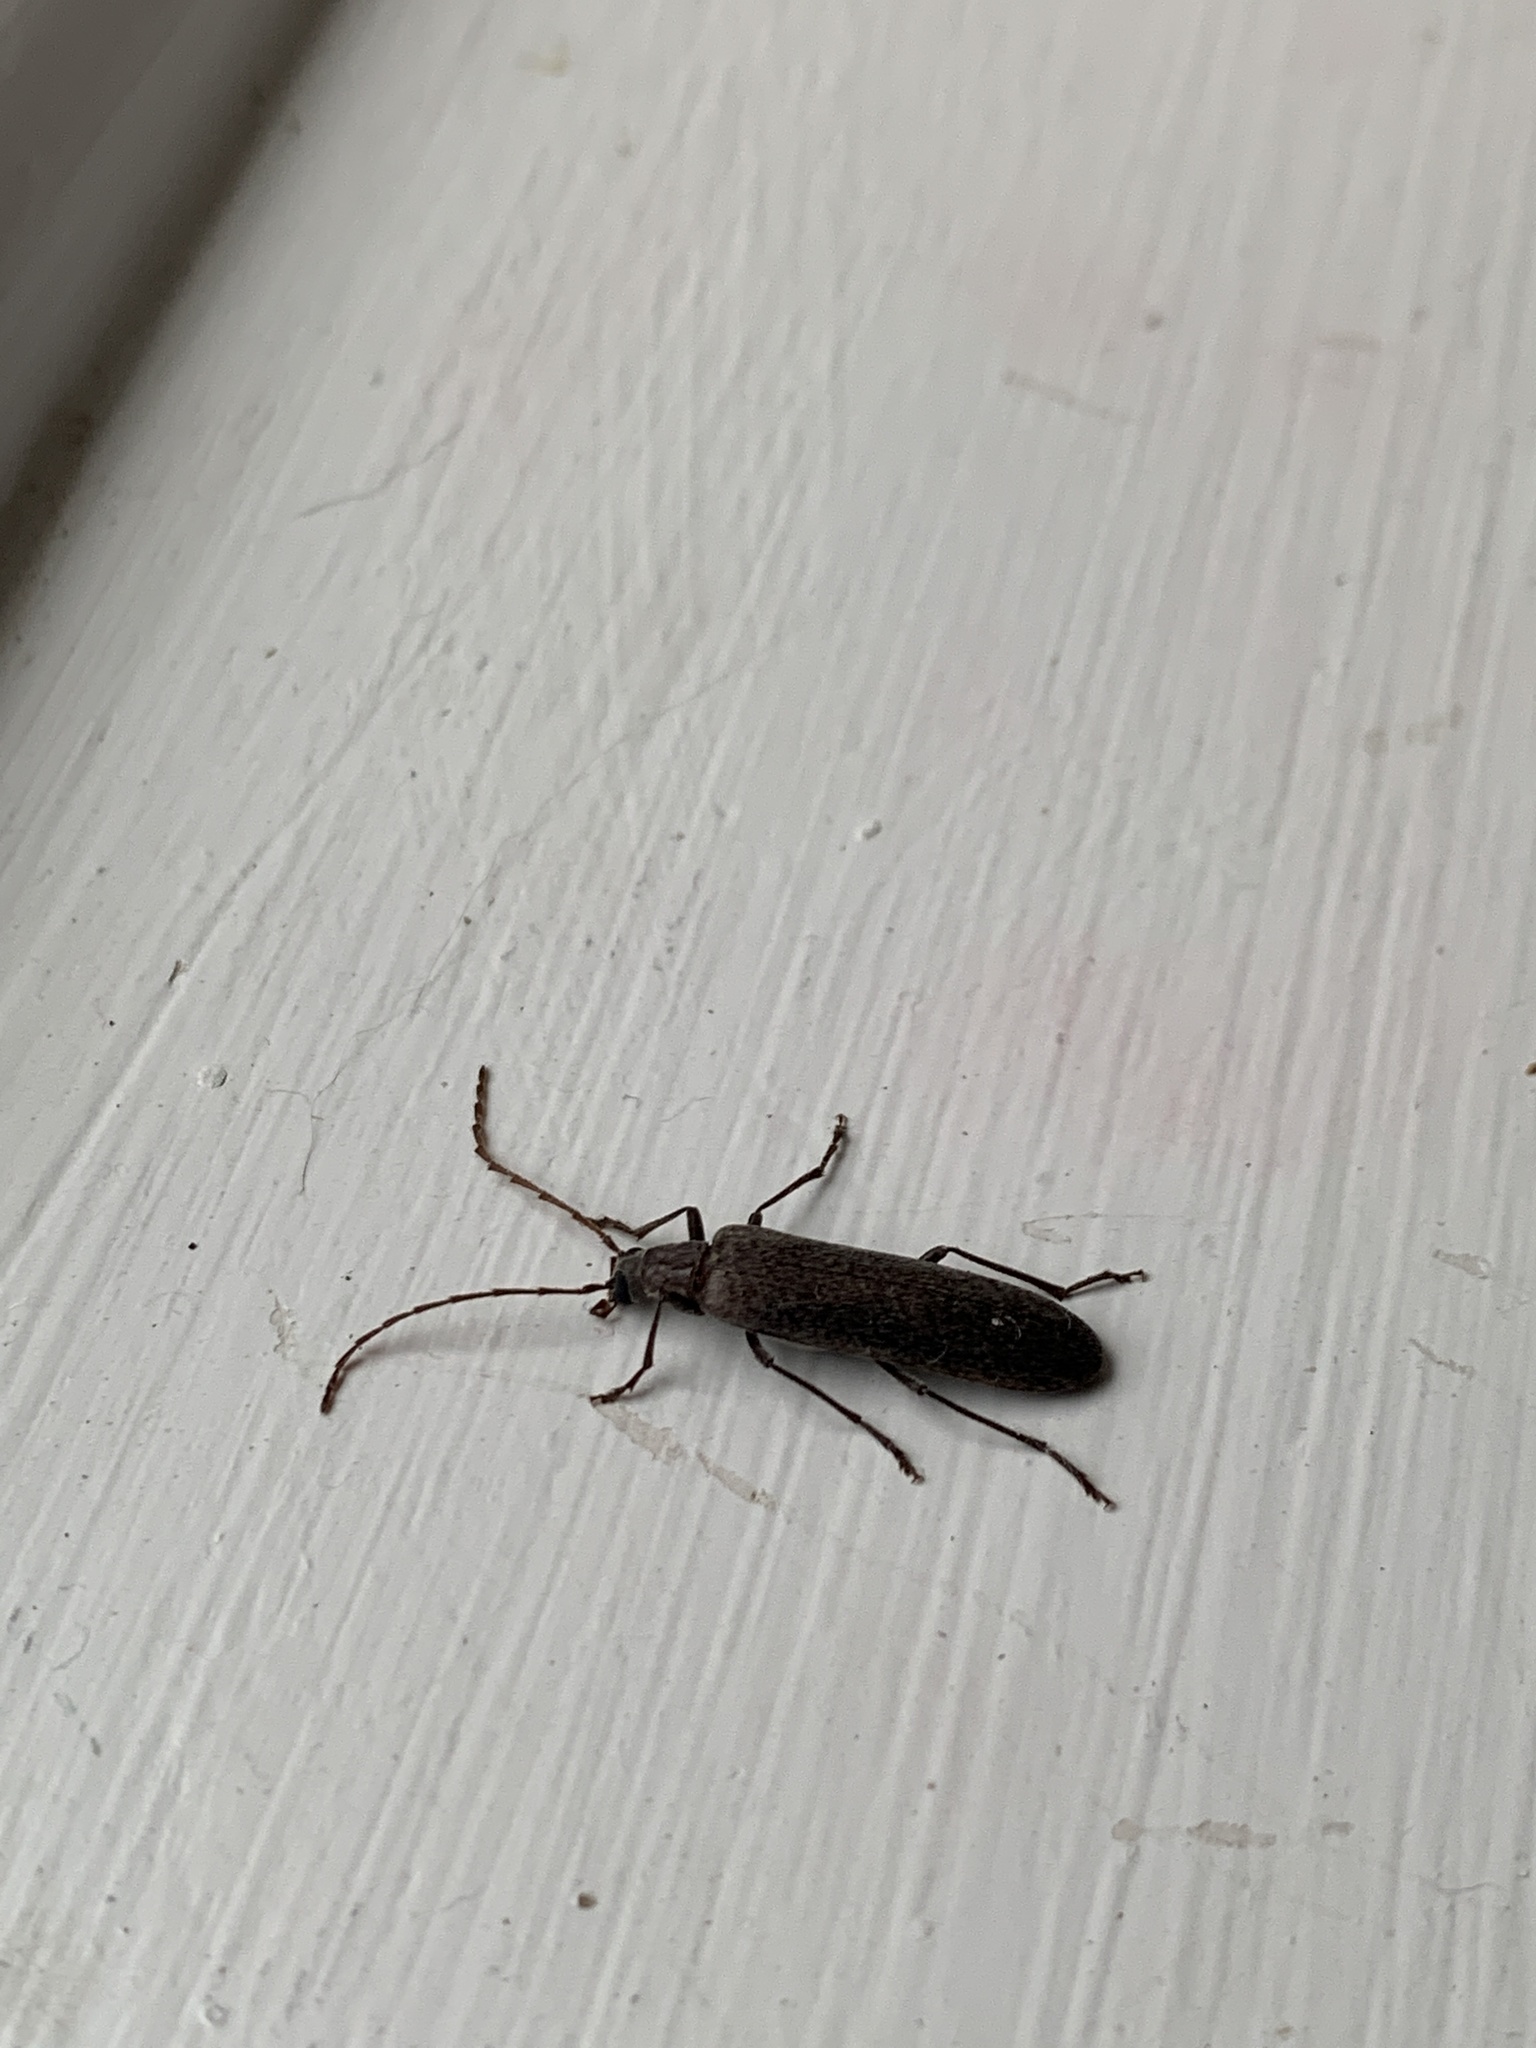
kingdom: Animalia
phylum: Arthropoda
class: Insecta
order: Coleoptera
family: Oedemeridae
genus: Calopus
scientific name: Calopus angustus
